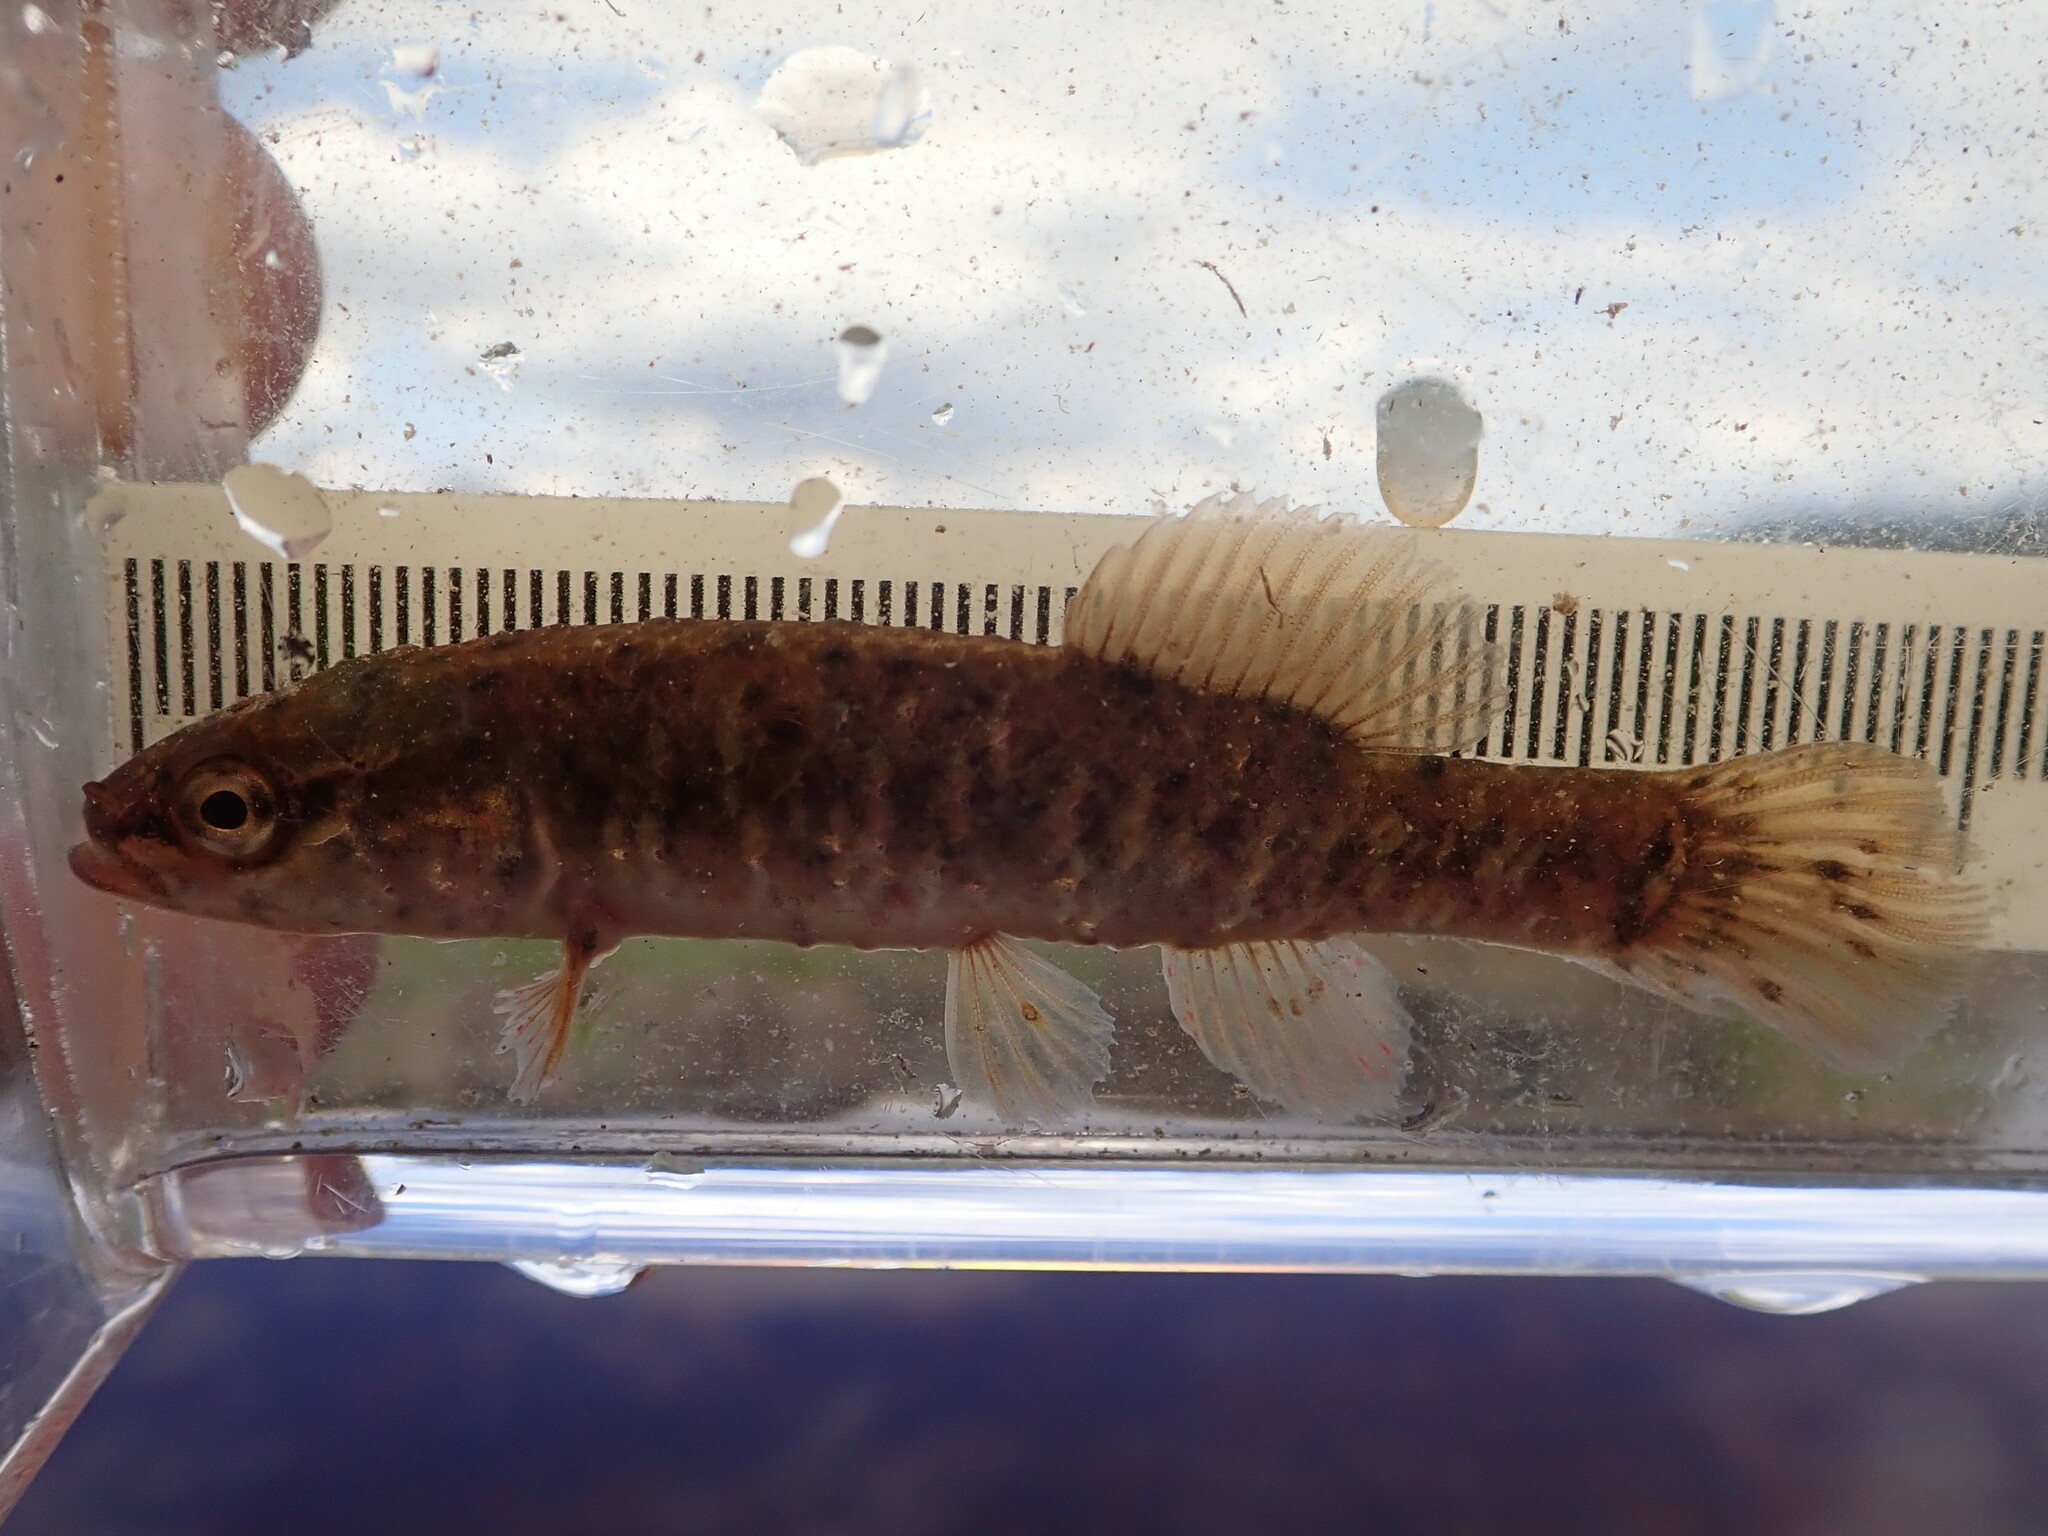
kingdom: Animalia
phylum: Chordata
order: Esociformes
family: Umbridae
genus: Umbra
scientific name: Umbra limi
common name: Central mudminnow
